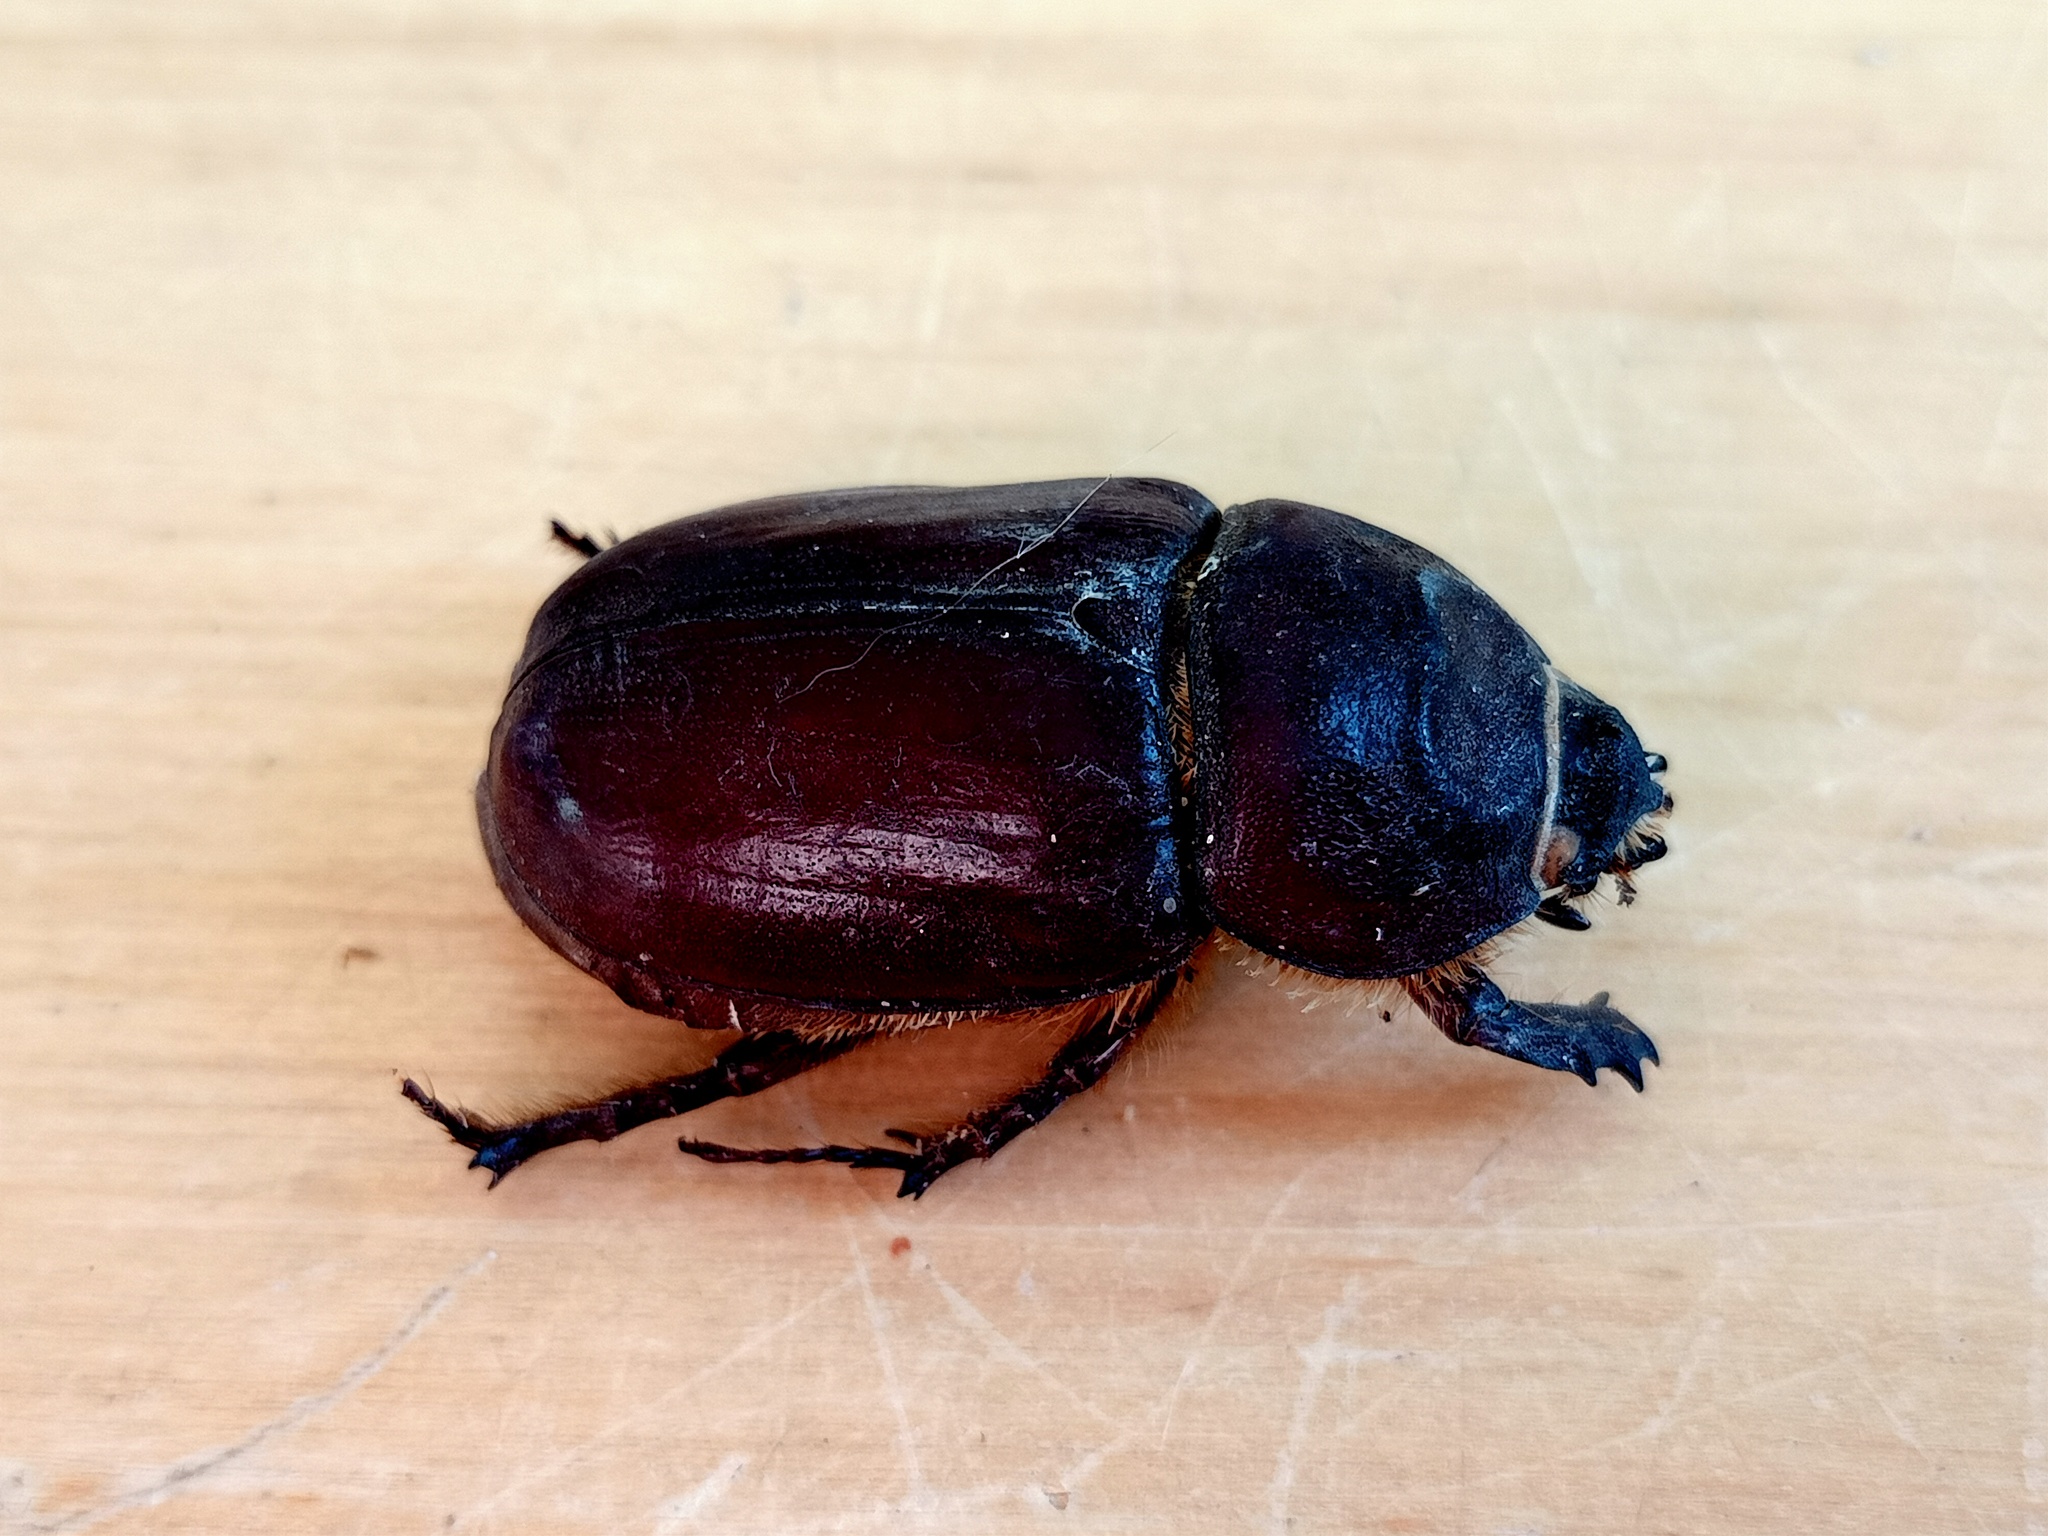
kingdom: Animalia
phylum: Arthropoda
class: Insecta
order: Coleoptera
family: Scarabaeidae
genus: Oryctes
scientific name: Oryctes nasicornis
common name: European rhinoceros beetle
